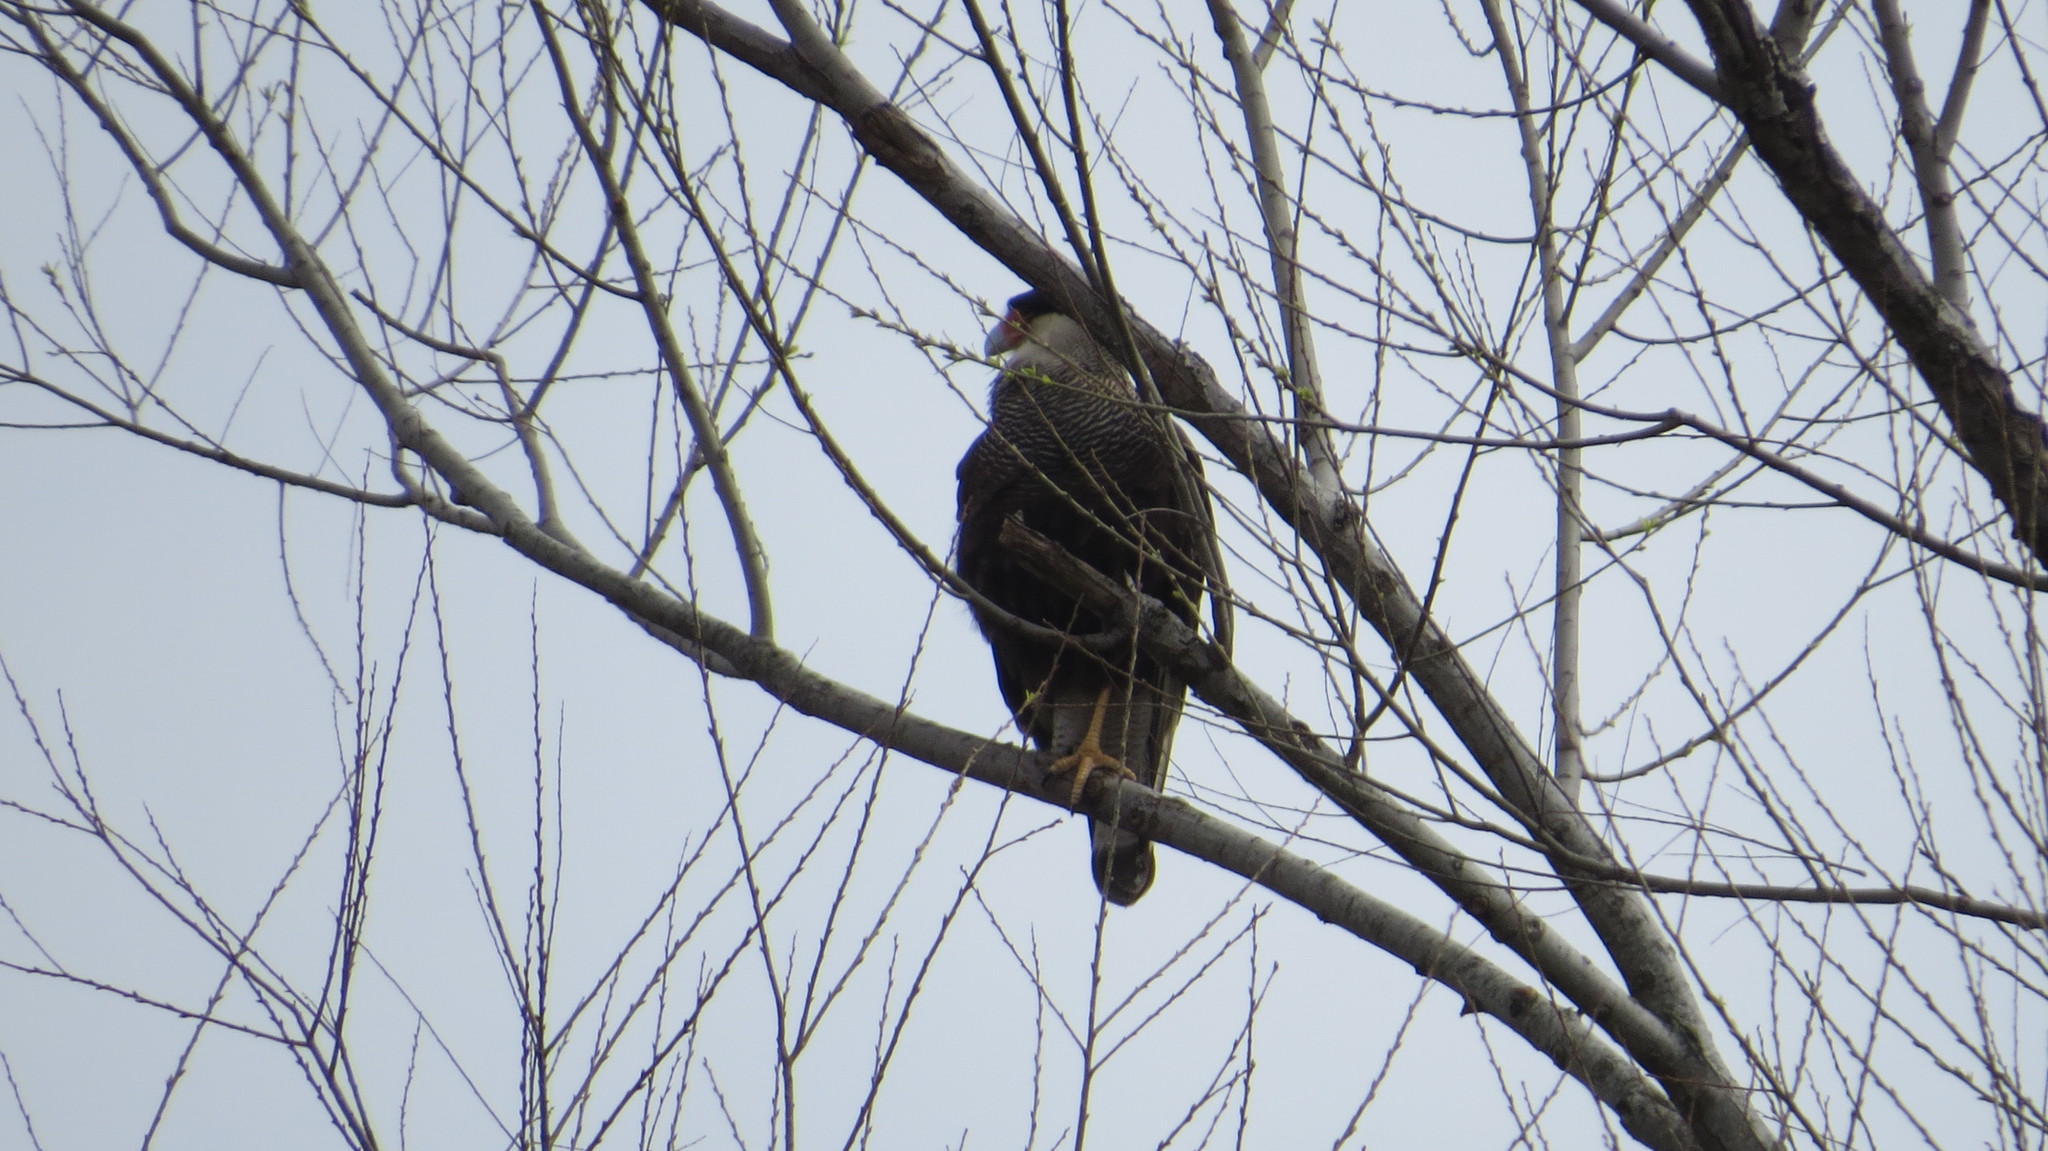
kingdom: Animalia
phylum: Chordata
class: Aves
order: Falconiformes
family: Falconidae
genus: Caracara
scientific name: Caracara plancus
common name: Southern caracara
